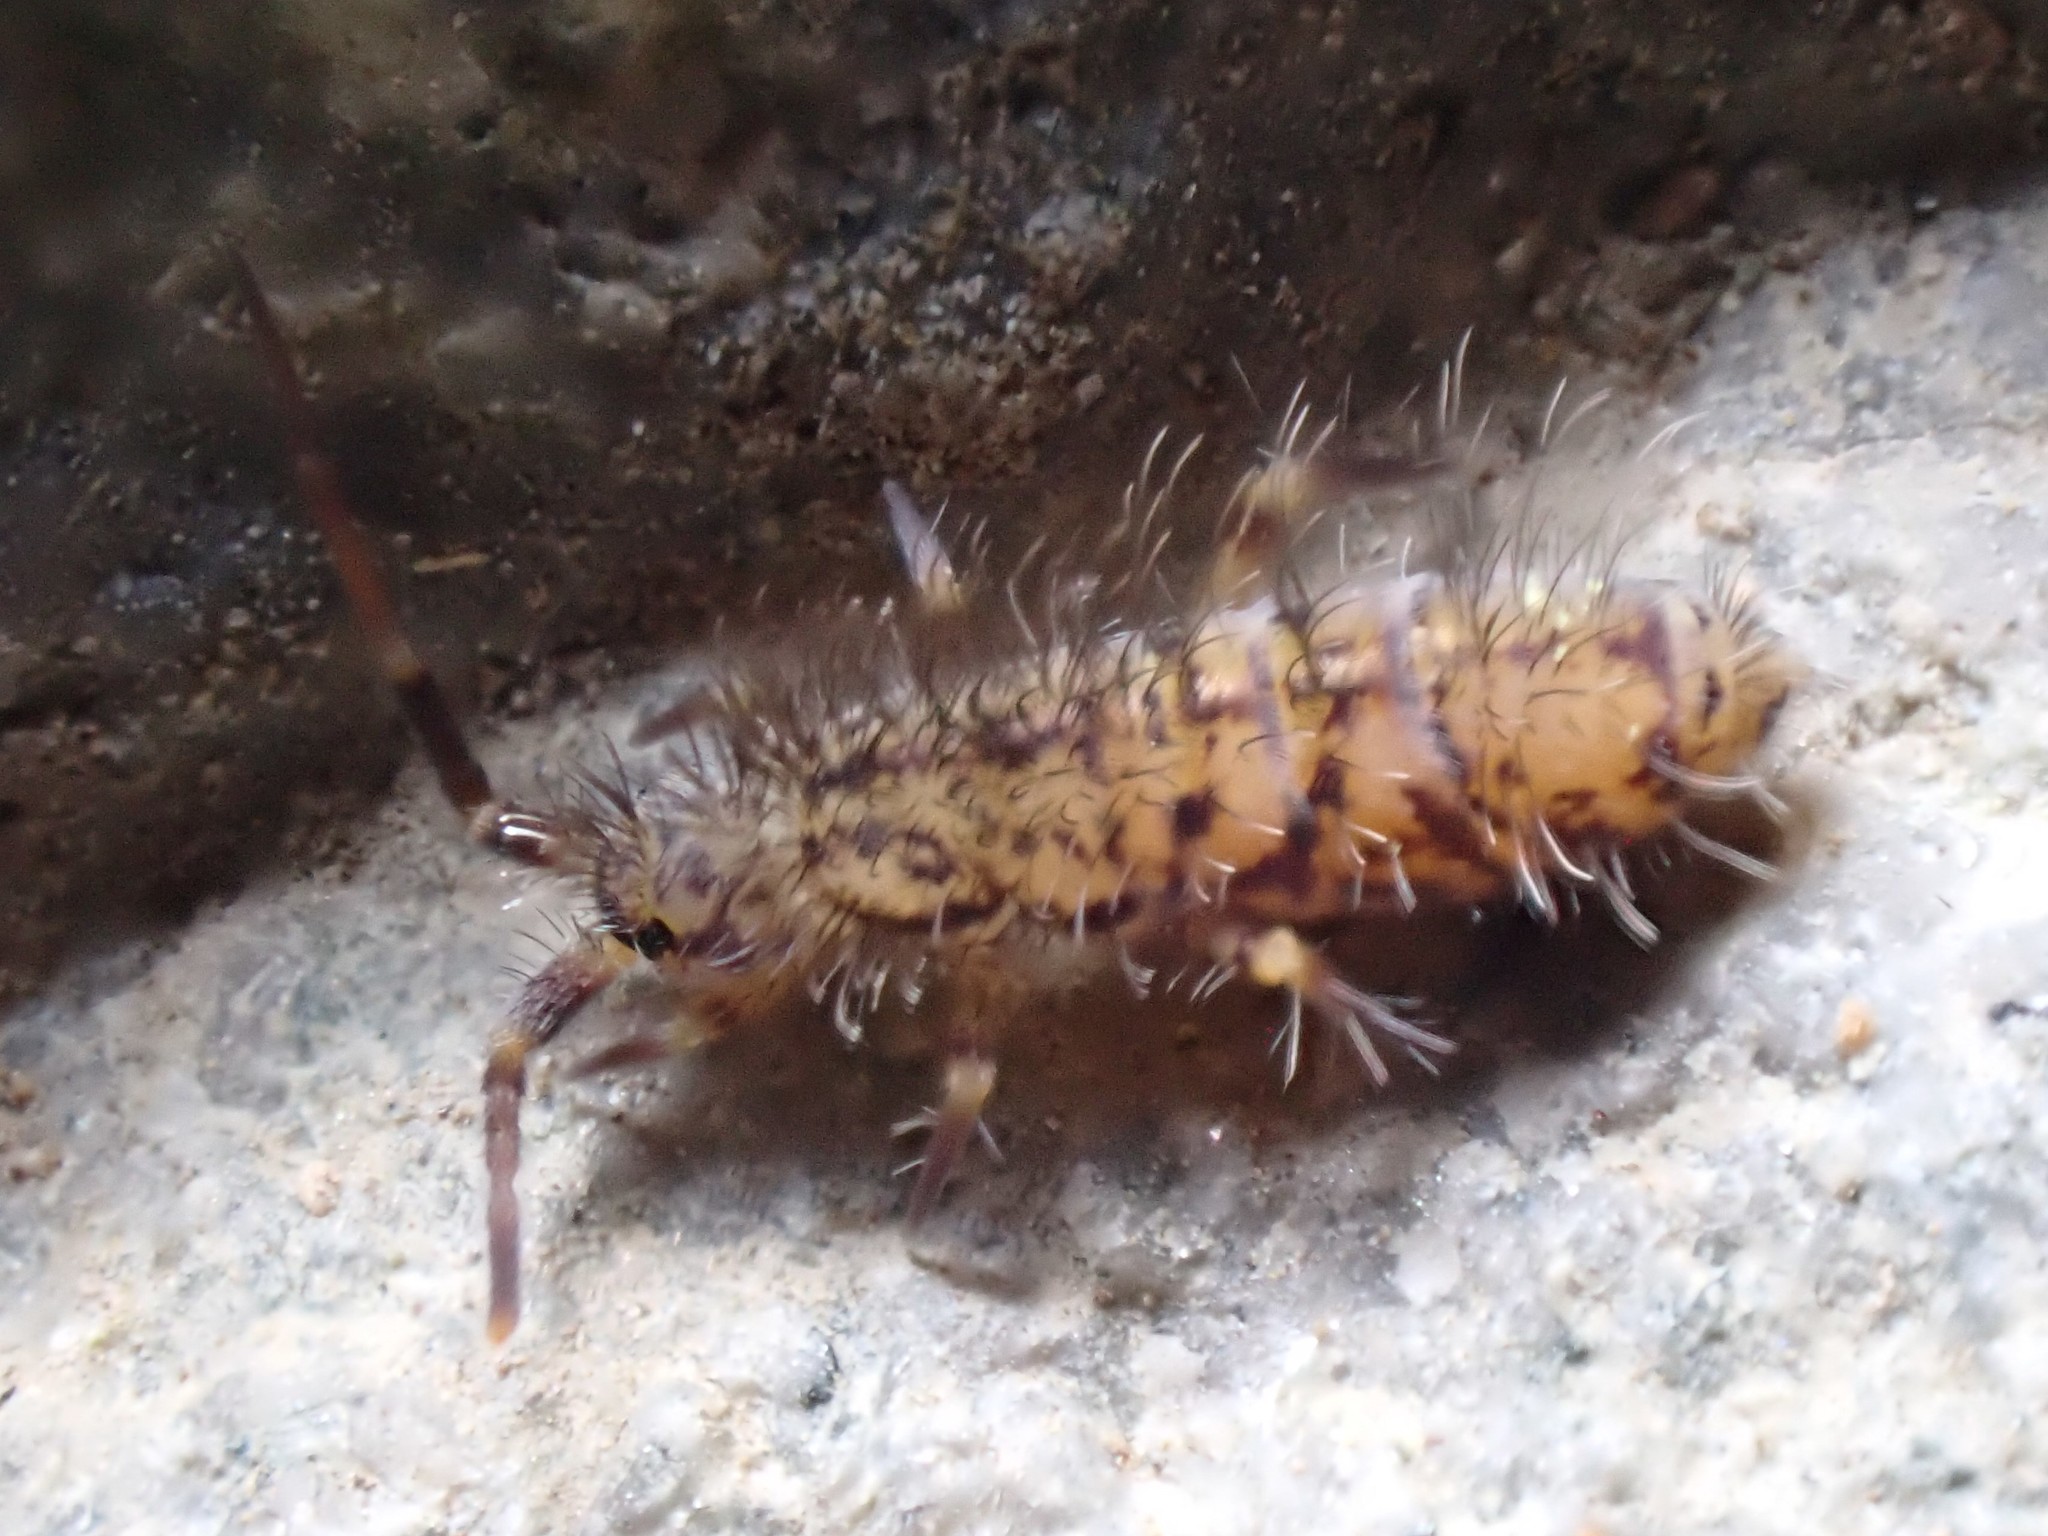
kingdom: Animalia
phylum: Arthropoda
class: Collembola
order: Entomobryomorpha
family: Orchesellidae
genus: Orchesella
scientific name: Orchesella villosa
